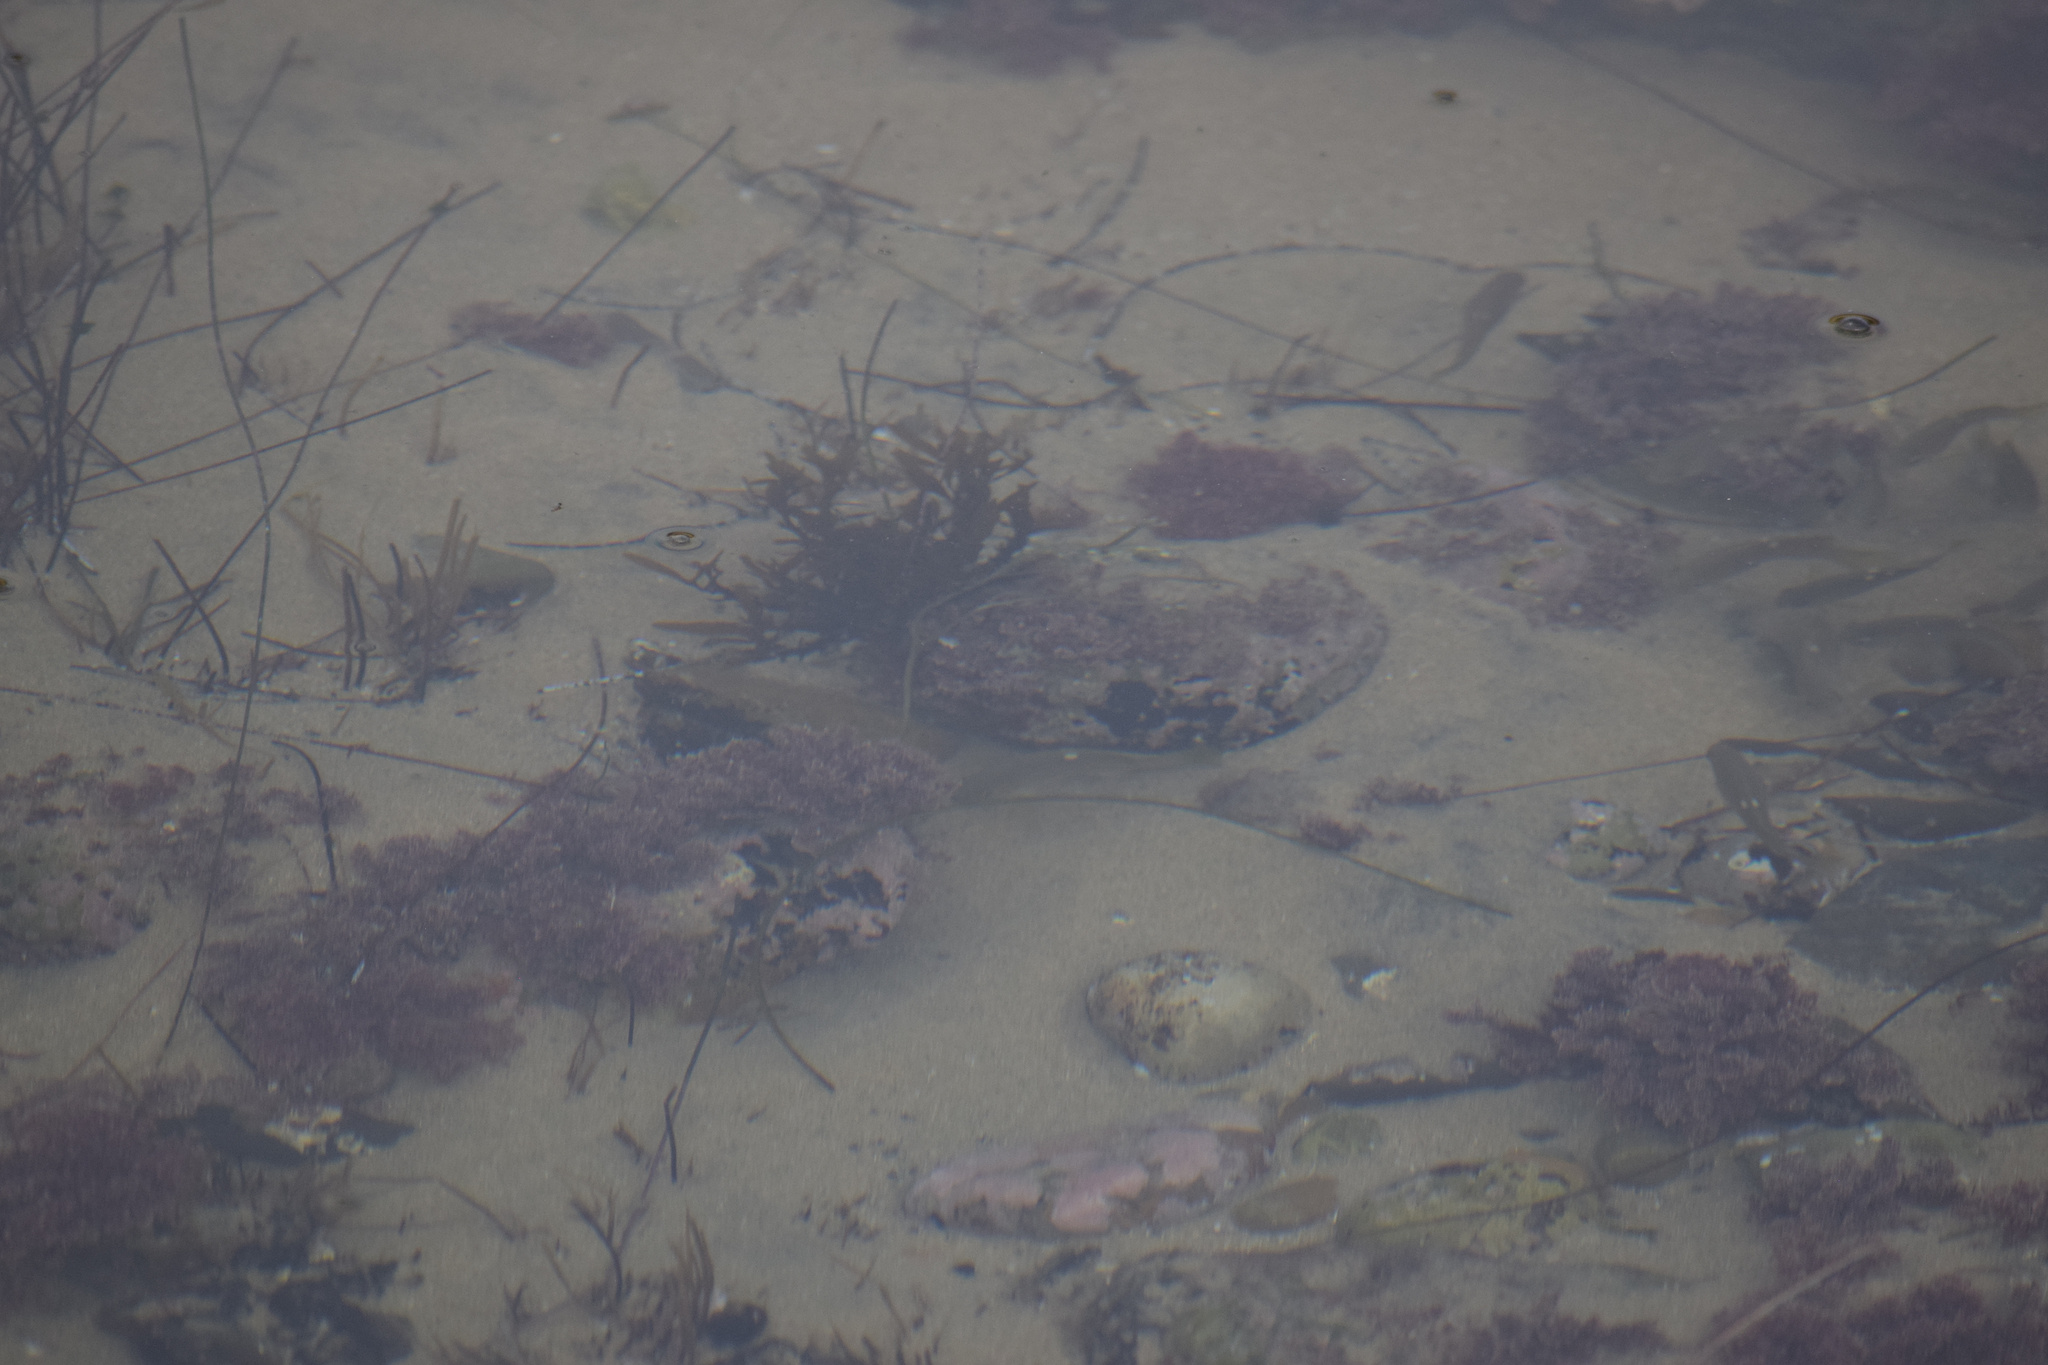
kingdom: Animalia
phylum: Chordata
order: Perciformes
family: Kyphosidae
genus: Girella
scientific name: Girella nigricans
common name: Opaleye
